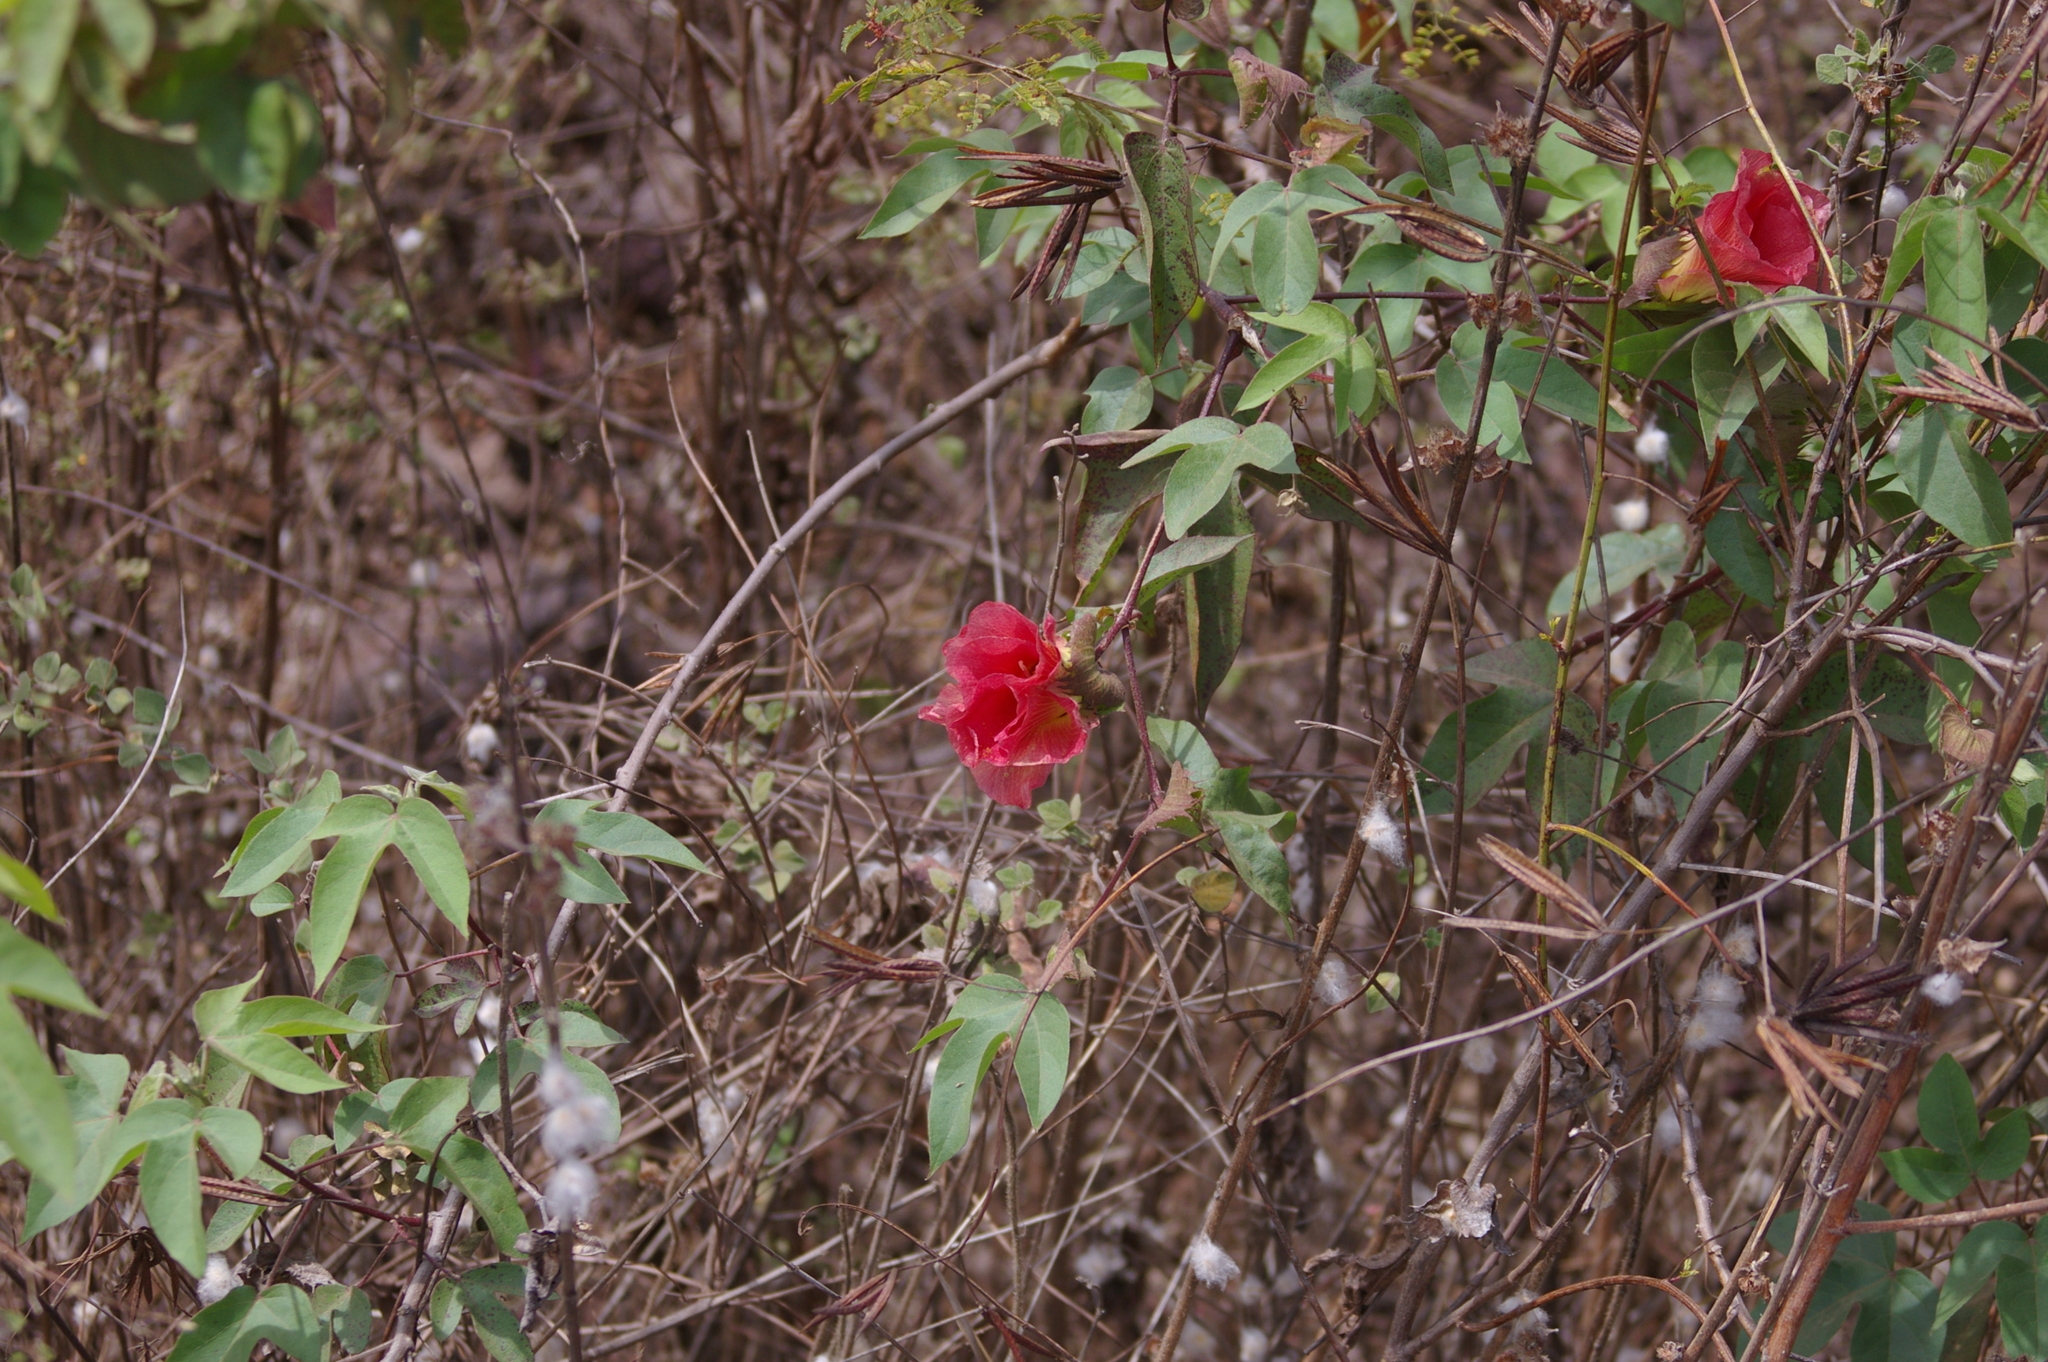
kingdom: Plantae
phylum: Tracheophyta
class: Magnoliopsida
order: Malvales
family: Malvaceae
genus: Gossypium
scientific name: Gossypium darwinii
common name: Darwin's cotton
